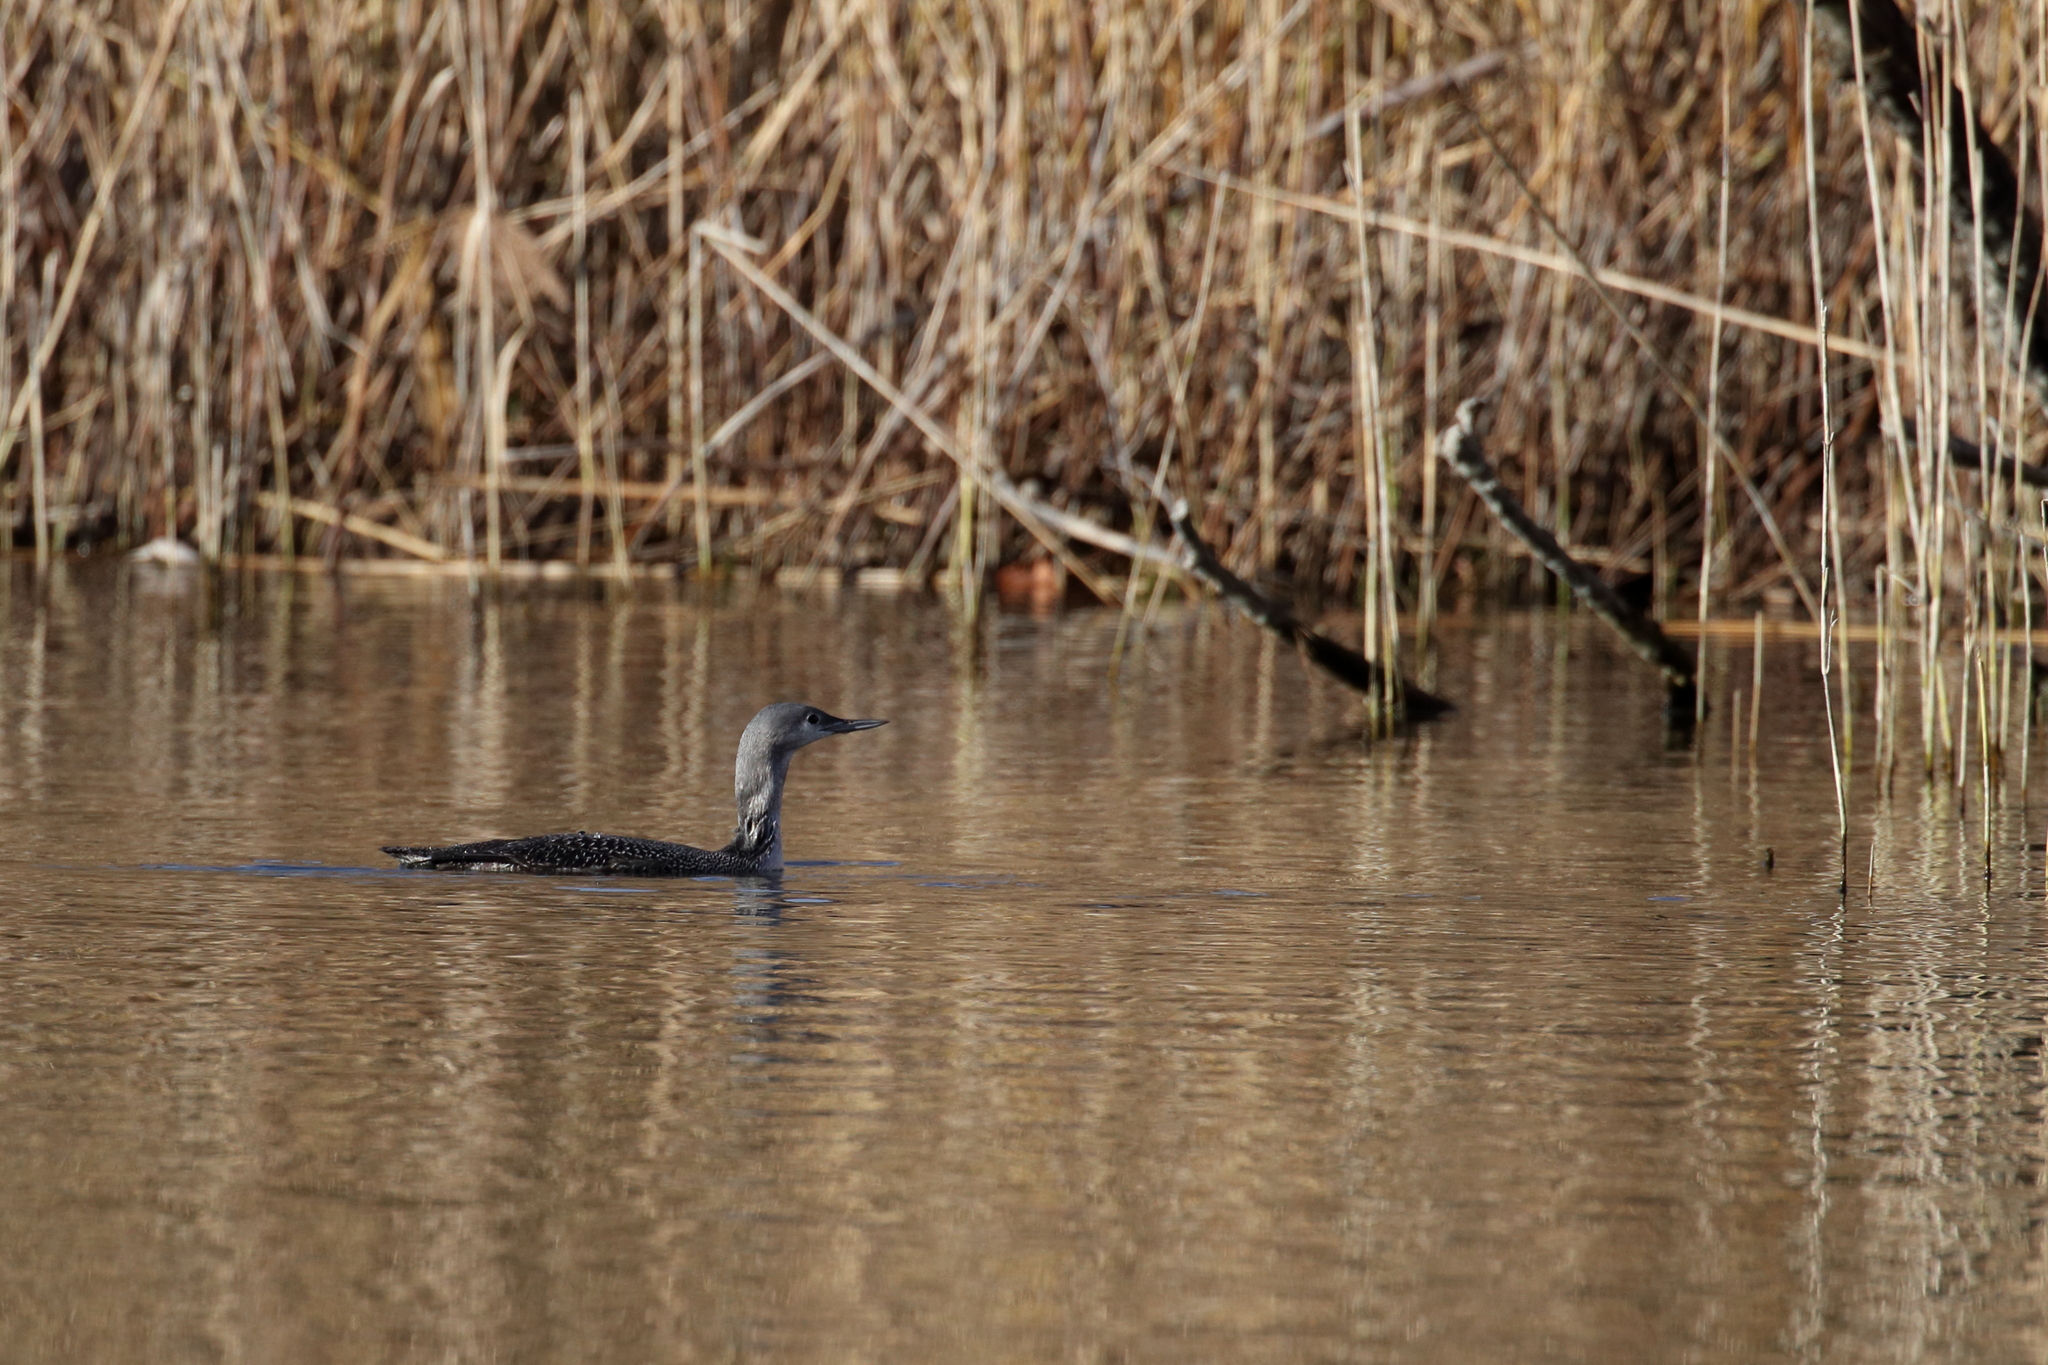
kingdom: Animalia
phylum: Chordata
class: Aves
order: Gaviiformes
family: Gaviidae
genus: Gavia
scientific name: Gavia stellata
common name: Red-throated loon
